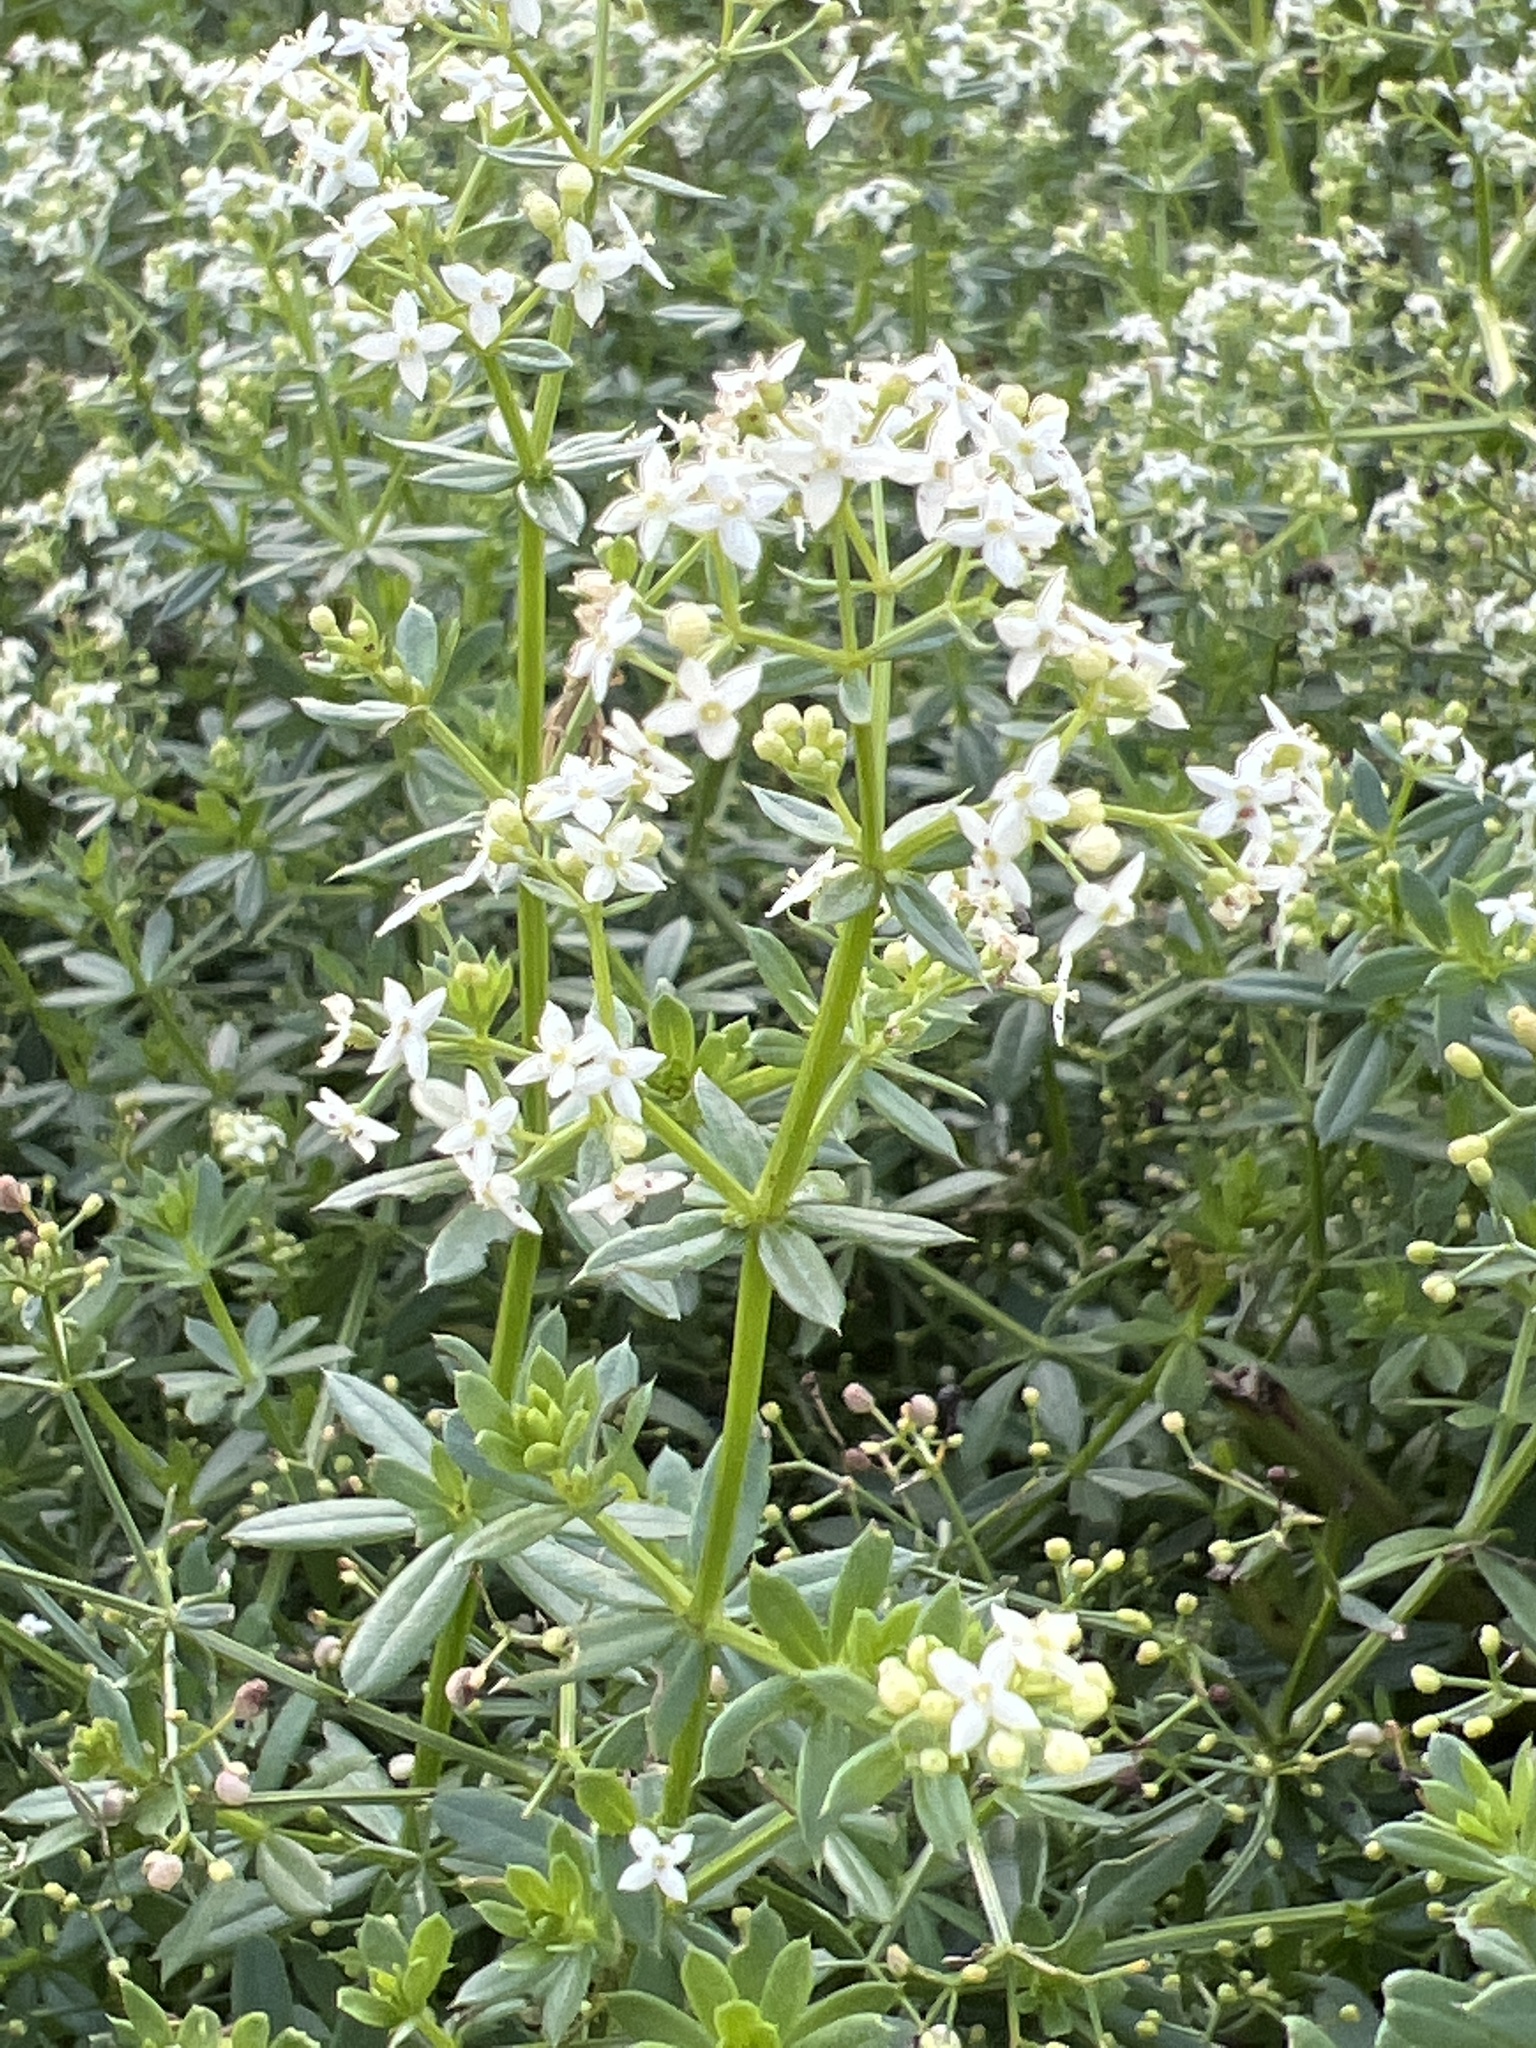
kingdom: Plantae
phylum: Tracheophyta
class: Magnoliopsida
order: Gentianales
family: Rubiaceae
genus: Galium
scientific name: Galium mollugo
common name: Hedge bedstraw
